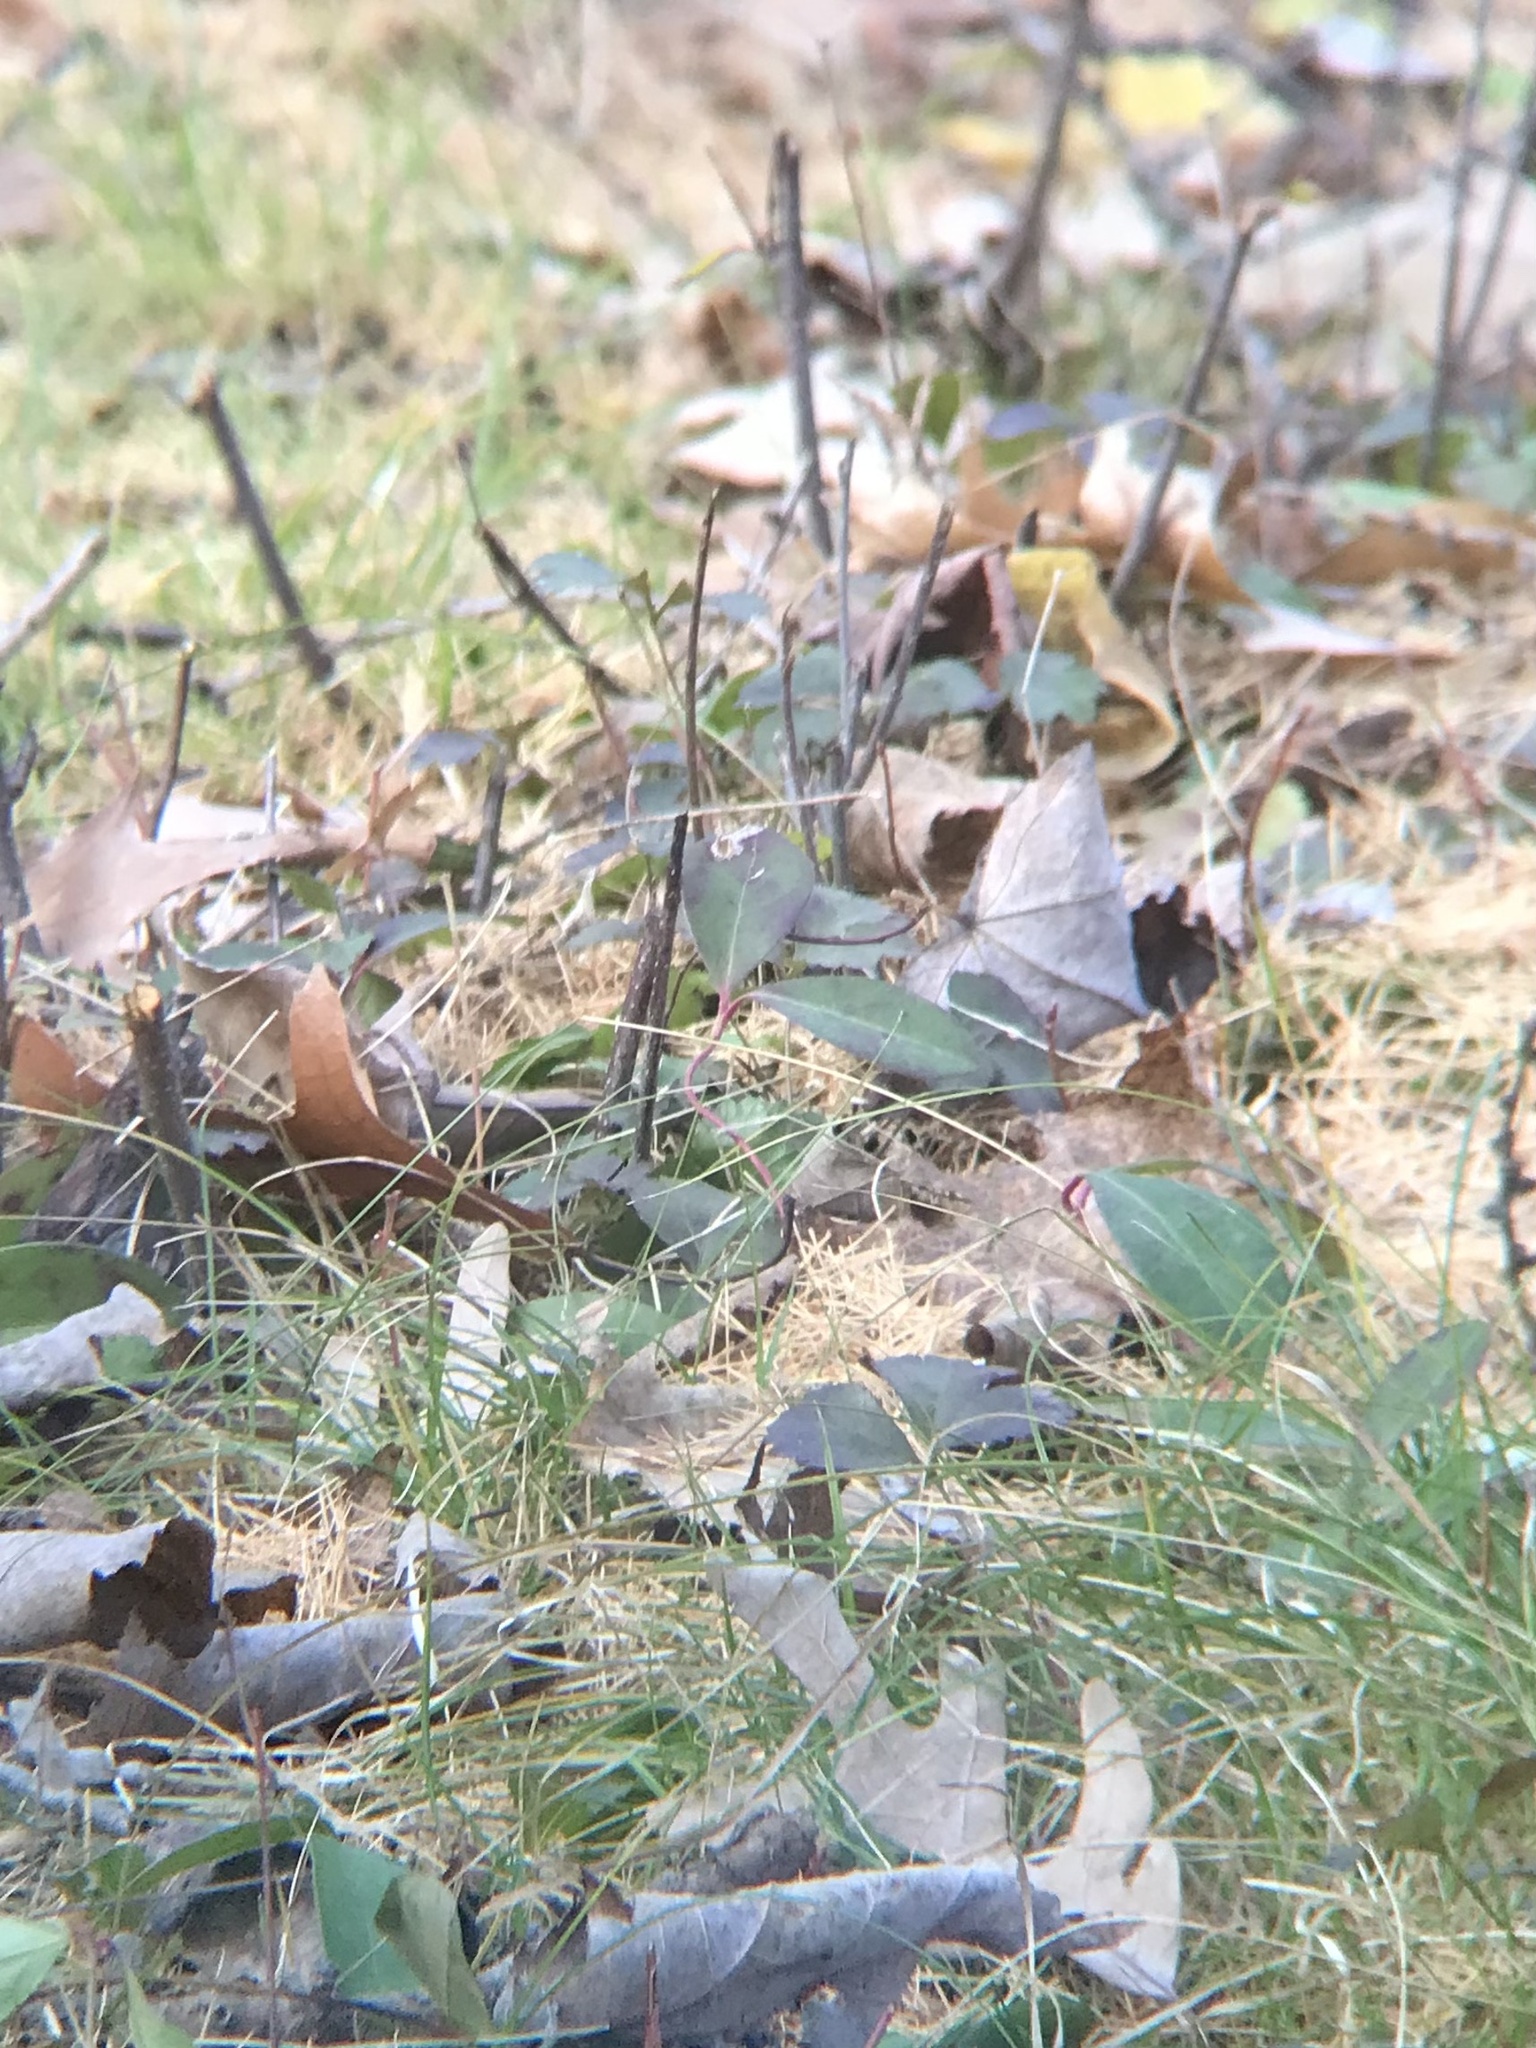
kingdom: Plantae
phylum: Tracheophyta
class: Magnoliopsida
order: Ericales
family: Ericaceae
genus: Gaultheria
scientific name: Gaultheria procumbens
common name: Checkerberry
